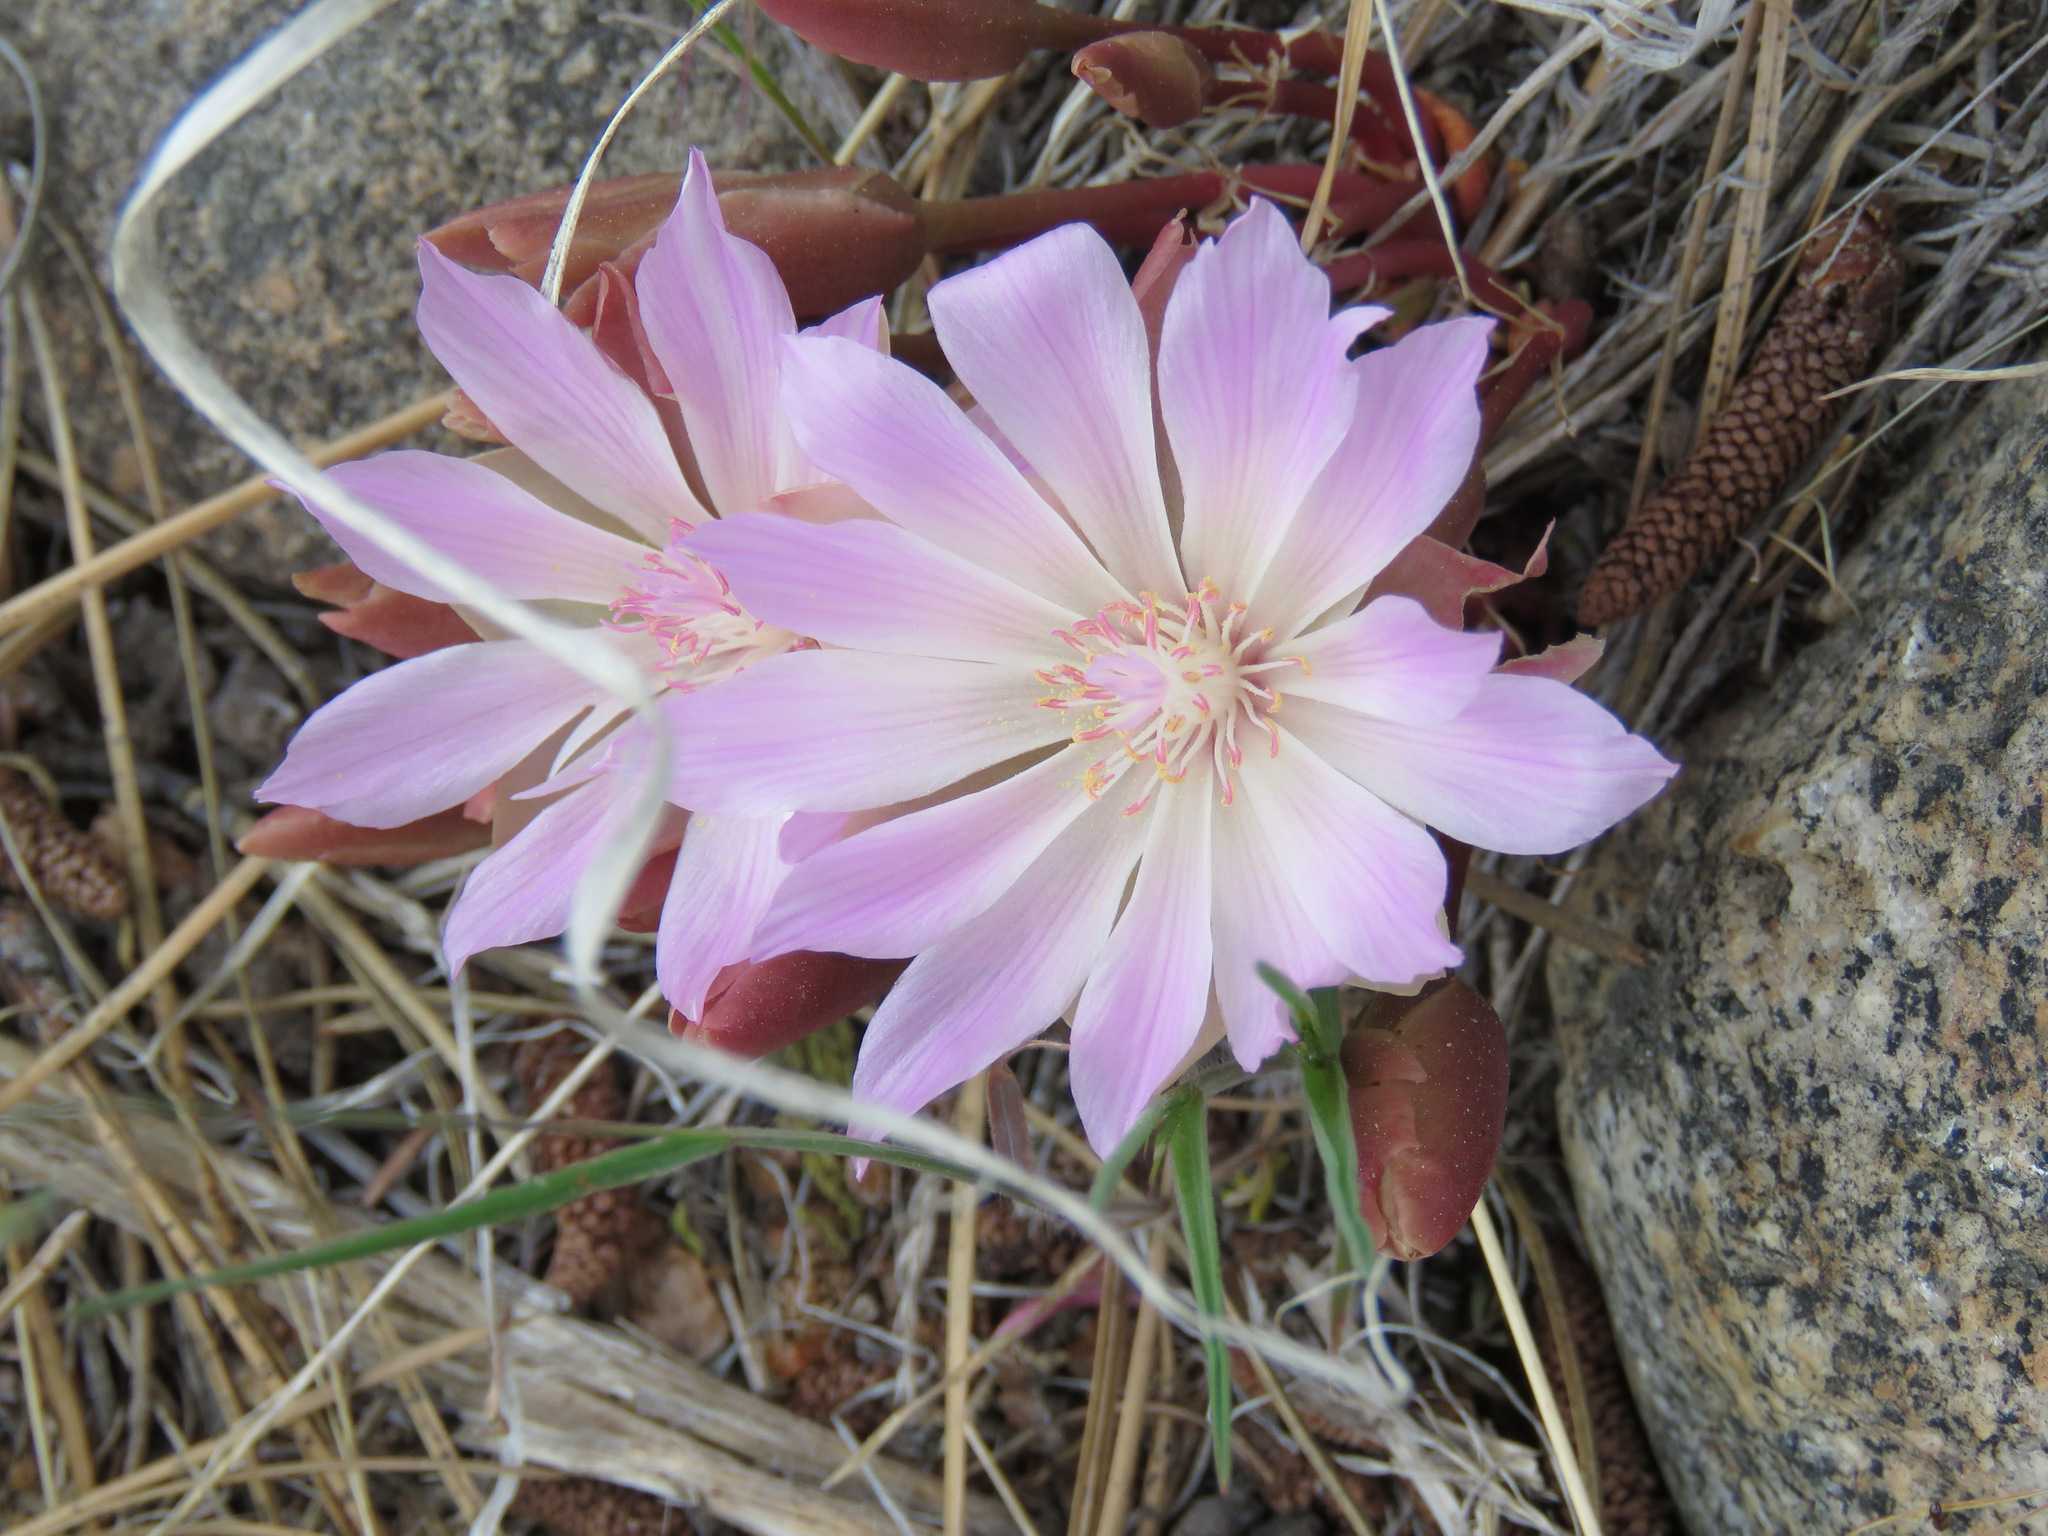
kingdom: Plantae
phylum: Tracheophyta
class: Magnoliopsida
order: Caryophyllales
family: Montiaceae
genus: Lewisia
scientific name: Lewisia rediviva
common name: Bitter-root
